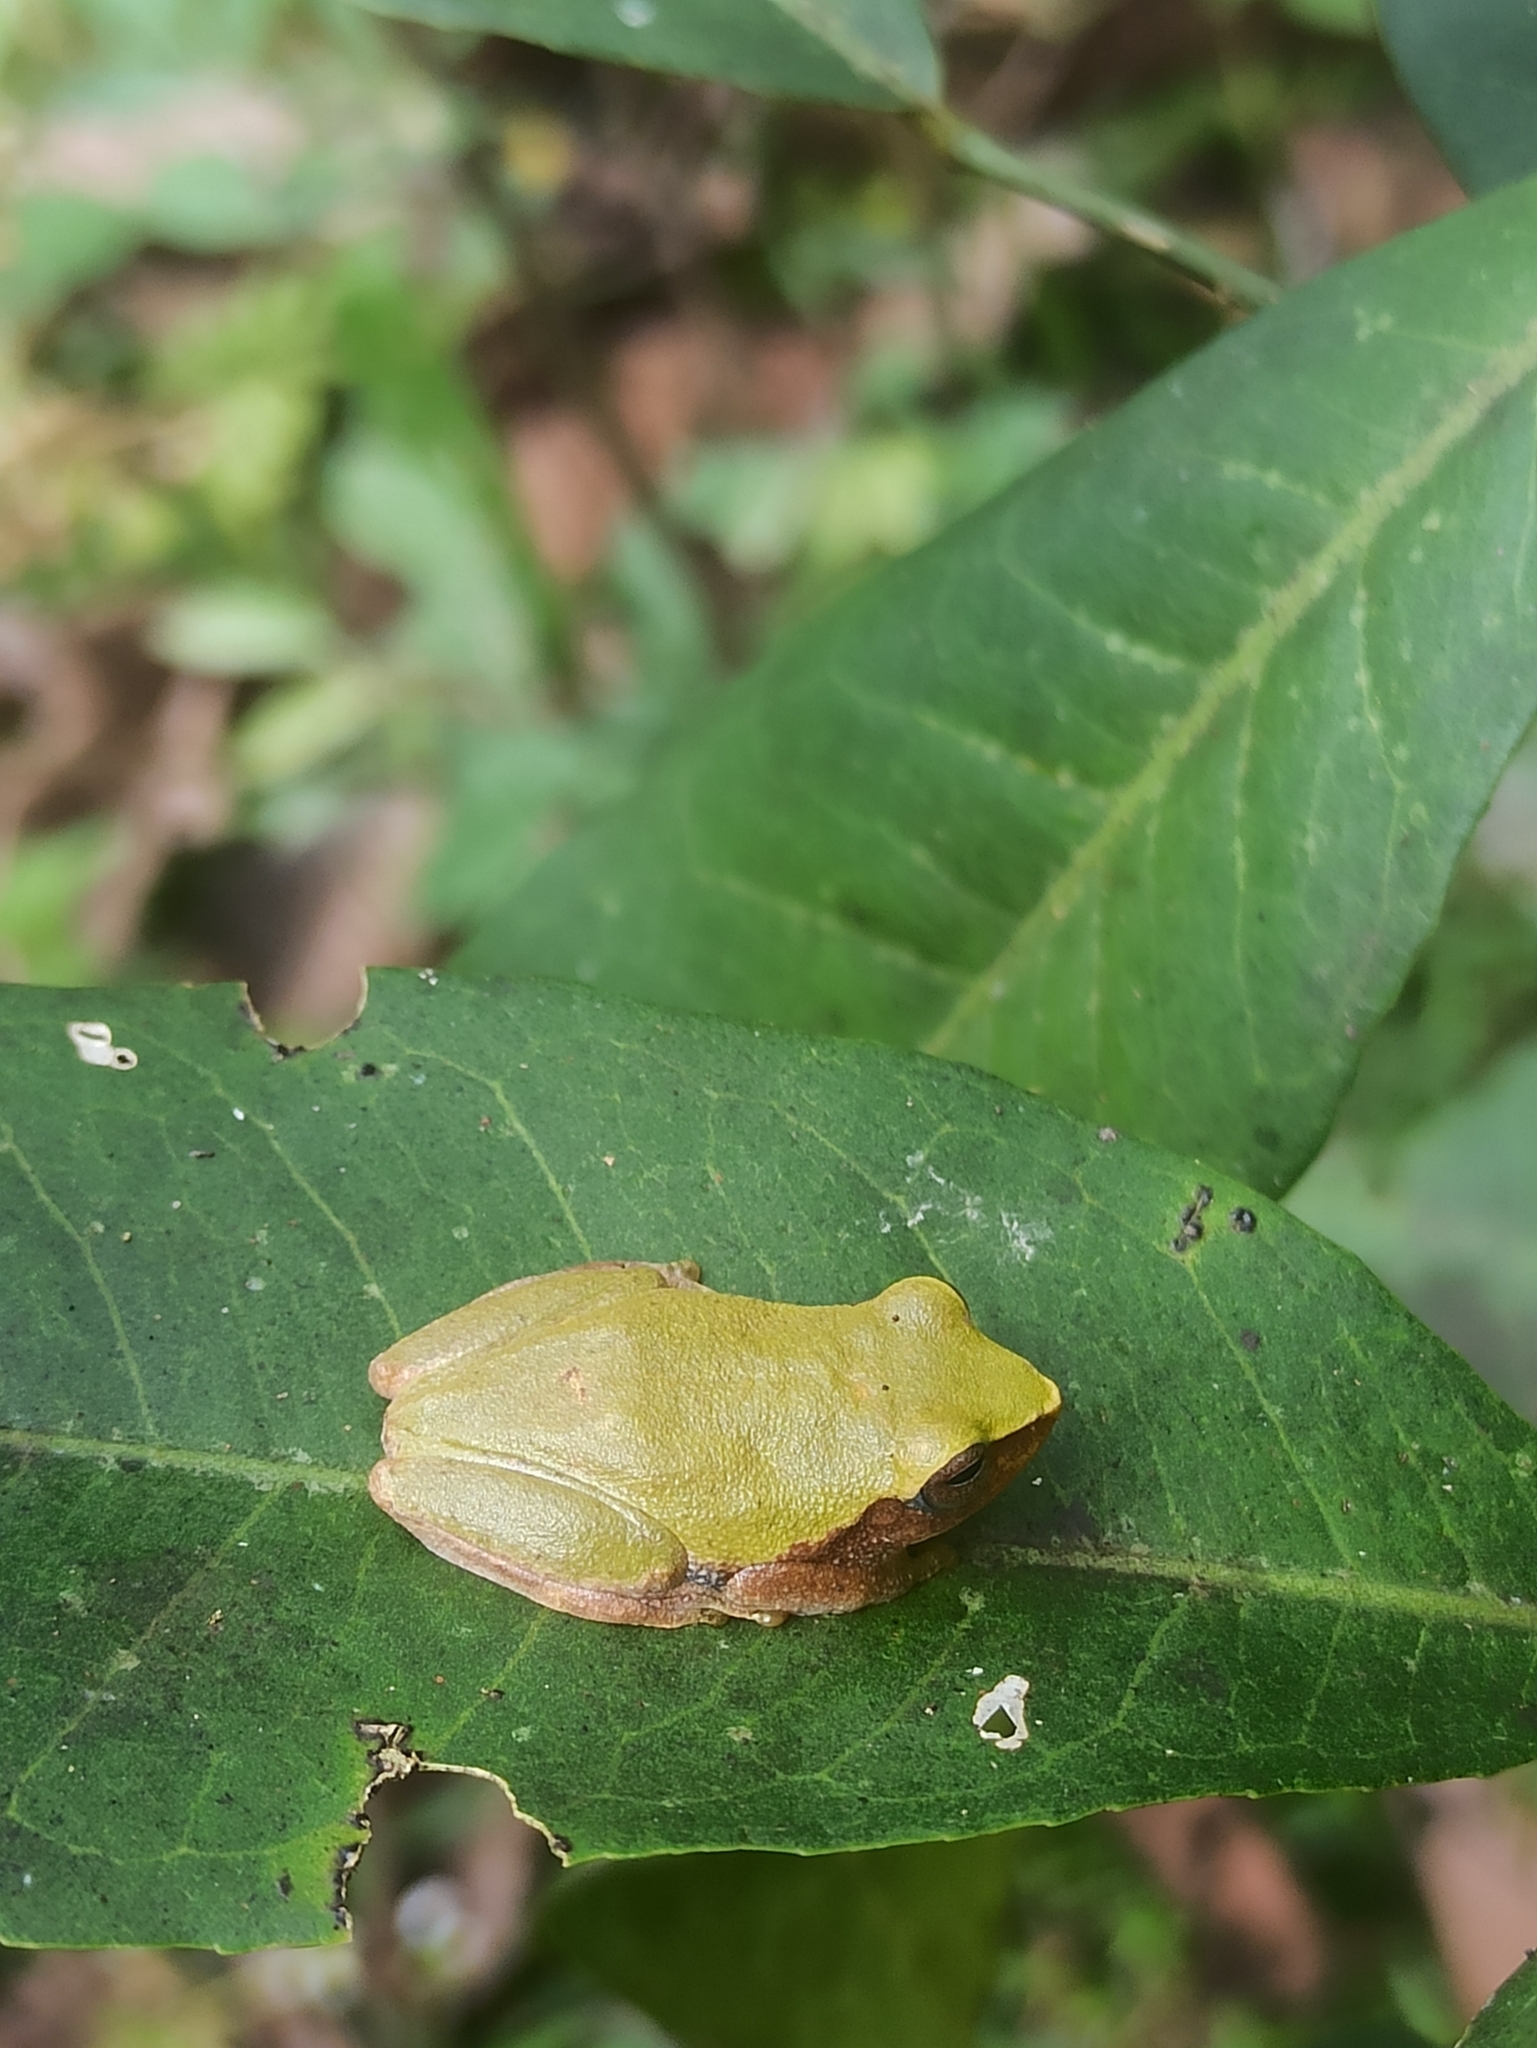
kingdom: Animalia
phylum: Chordata
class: Amphibia
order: Anura
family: Rhacophoridae
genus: Raorchestes
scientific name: Raorchestes akroparallagi
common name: Variable bush frog
